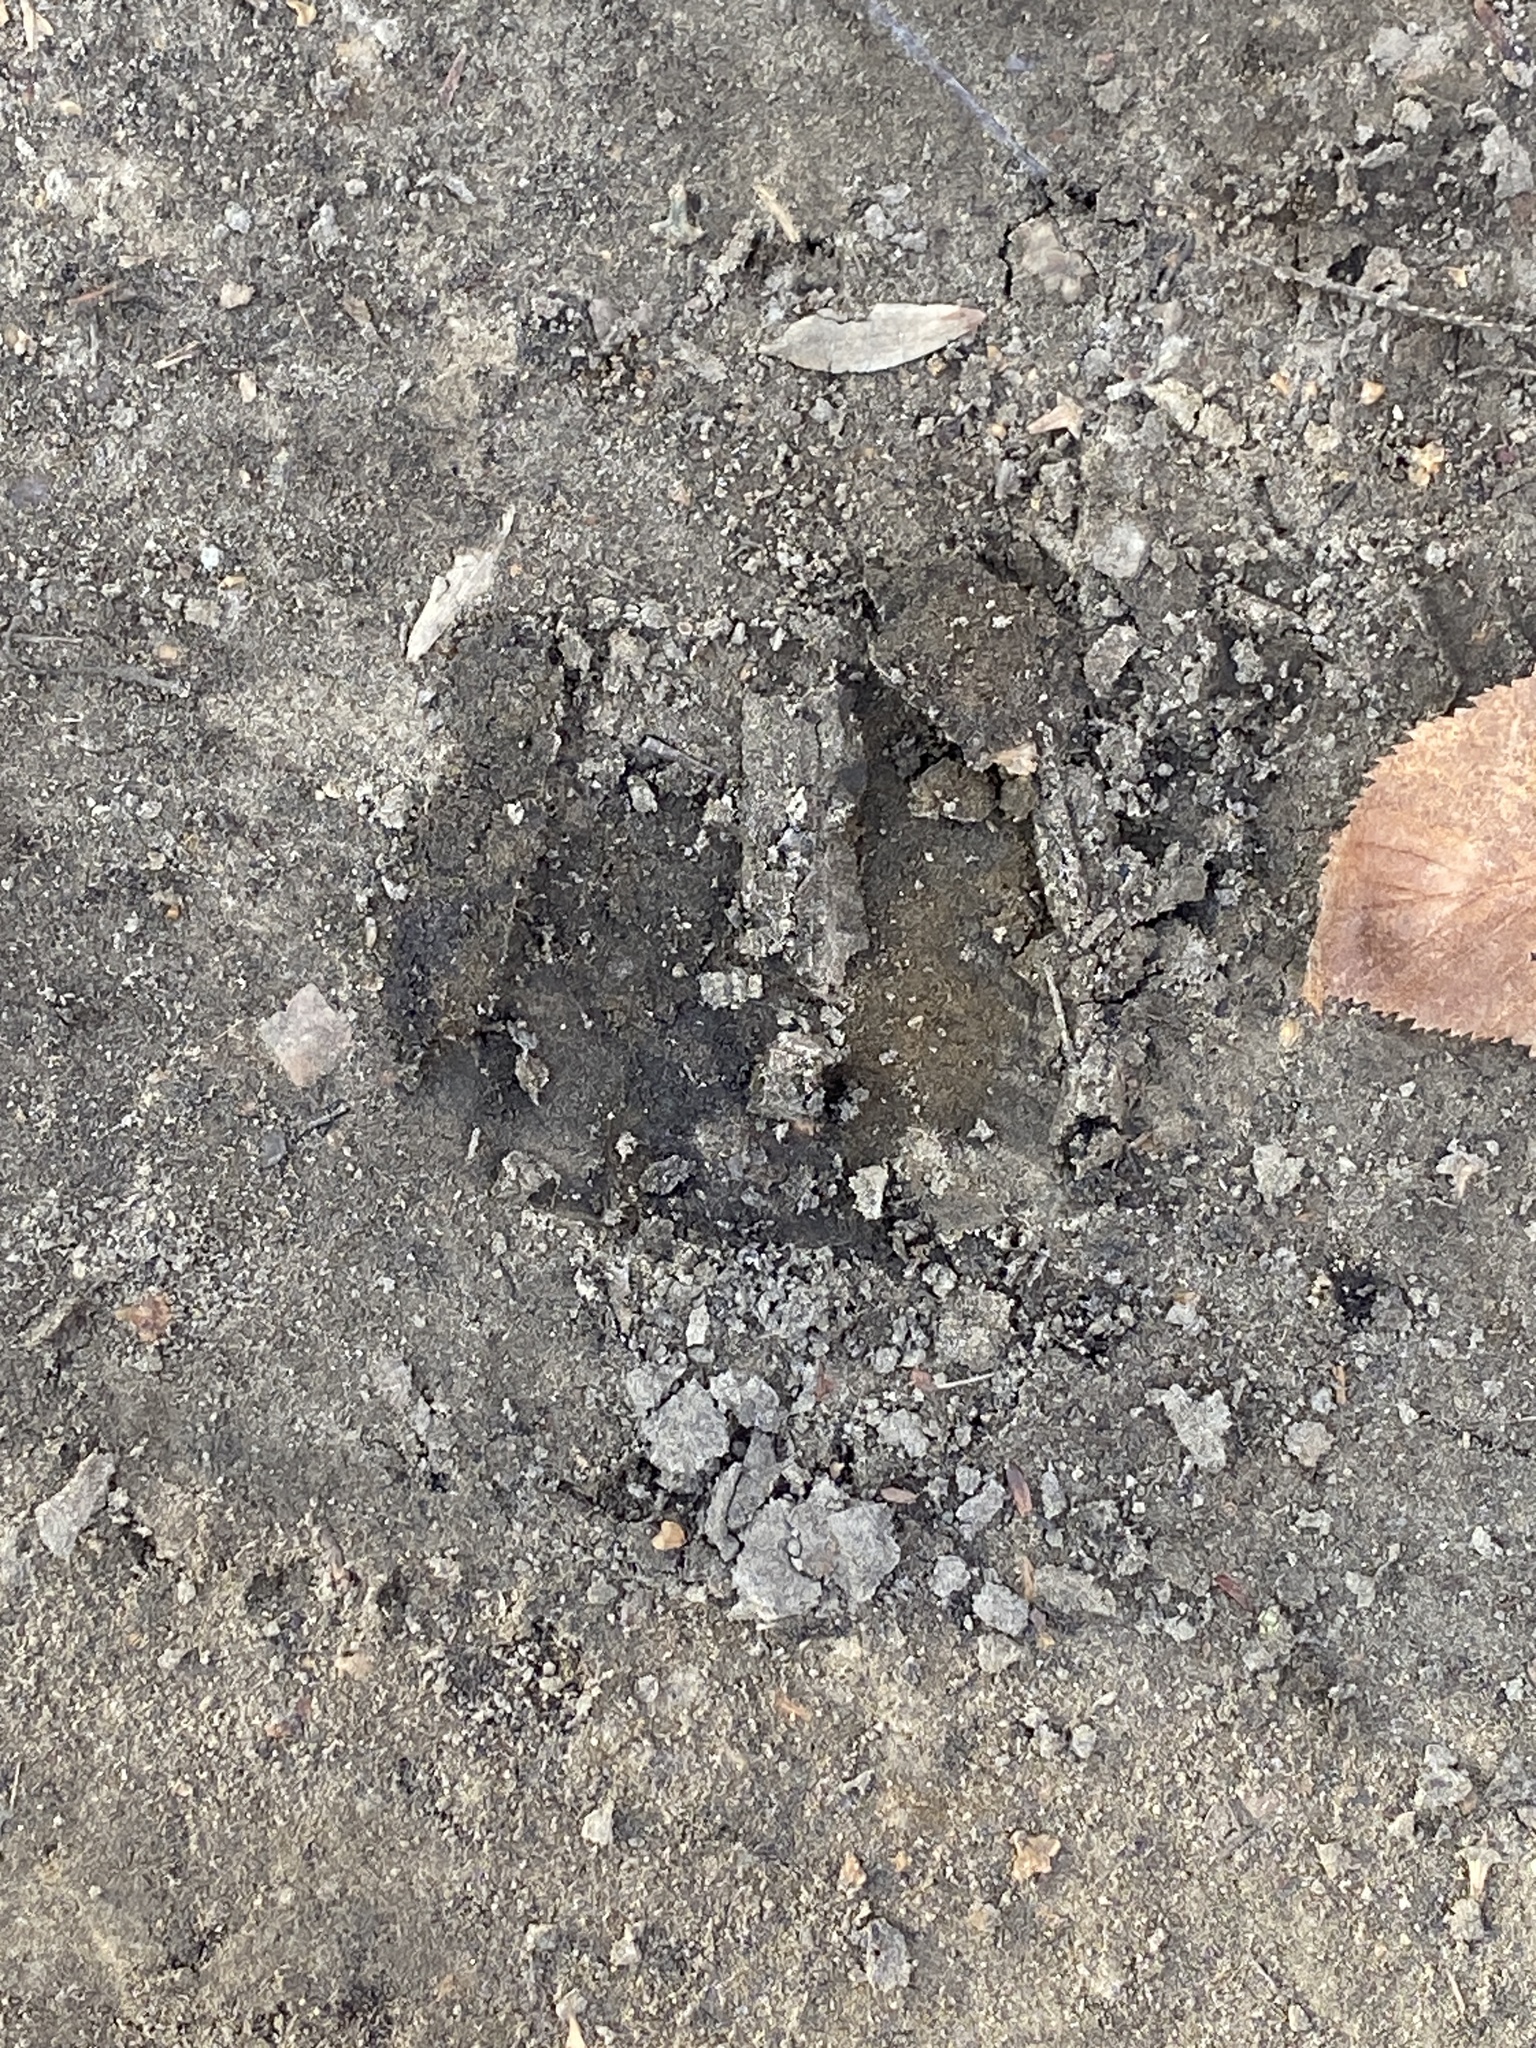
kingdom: Animalia
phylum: Chordata
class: Mammalia
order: Artiodactyla
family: Cervidae
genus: Odocoileus
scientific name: Odocoileus virginianus
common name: White-tailed deer
